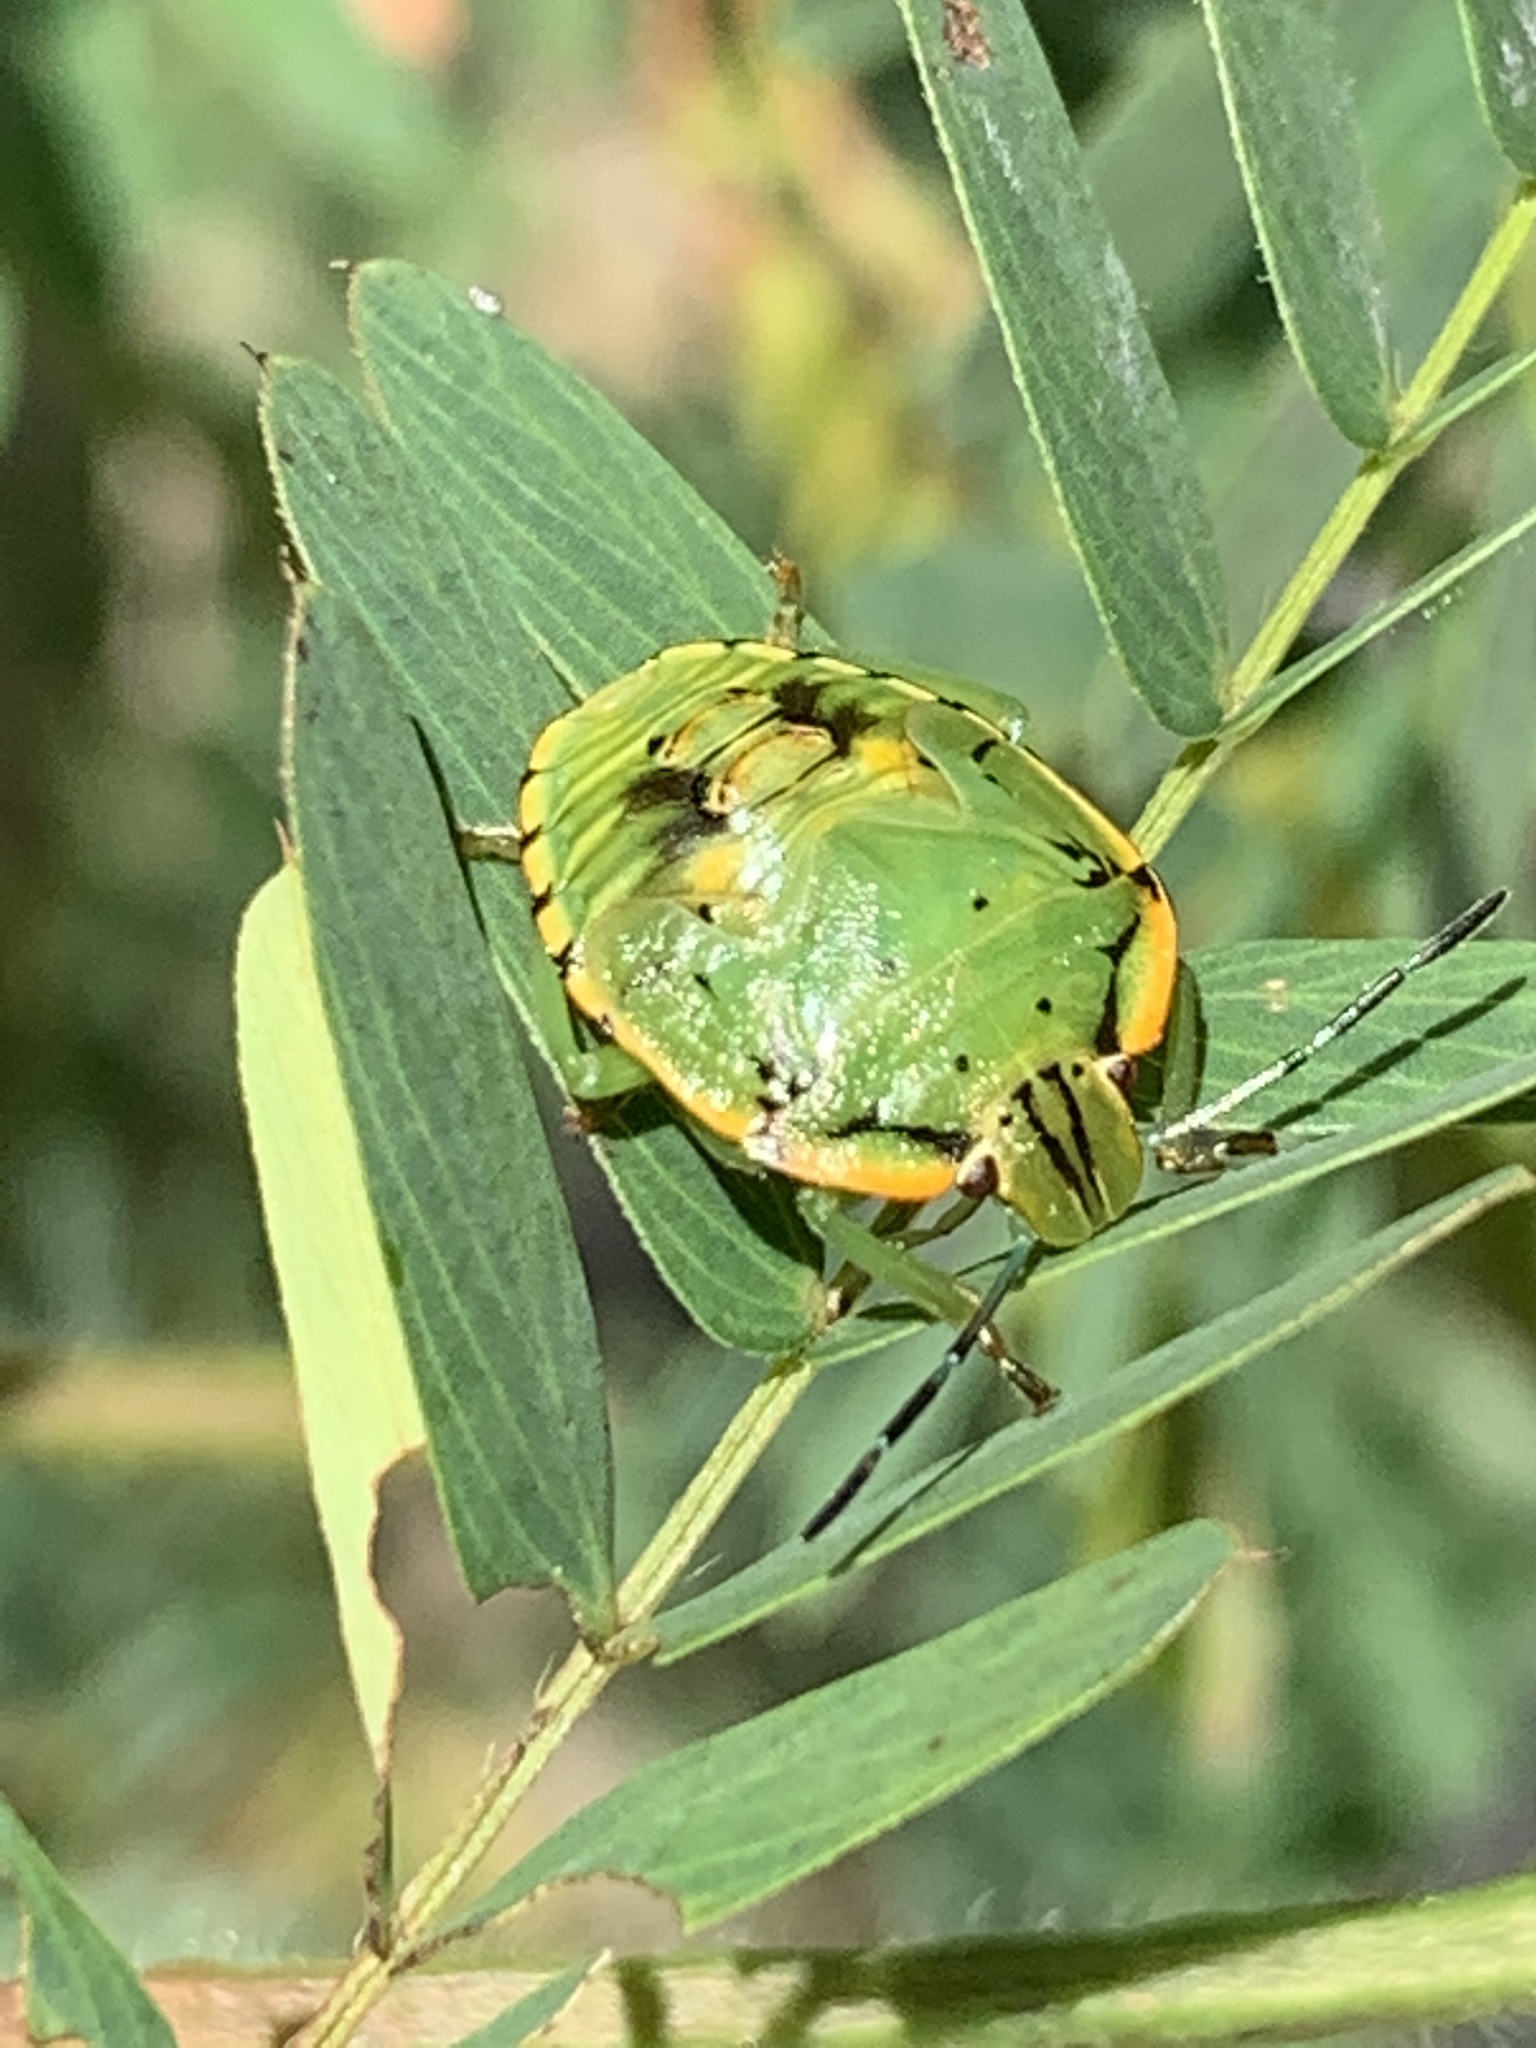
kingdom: Animalia
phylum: Arthropoda
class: Insecta
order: Hemiptera
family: Pentatomidae
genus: Chinavia
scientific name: Chinavia hilaris
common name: Green stink bug
